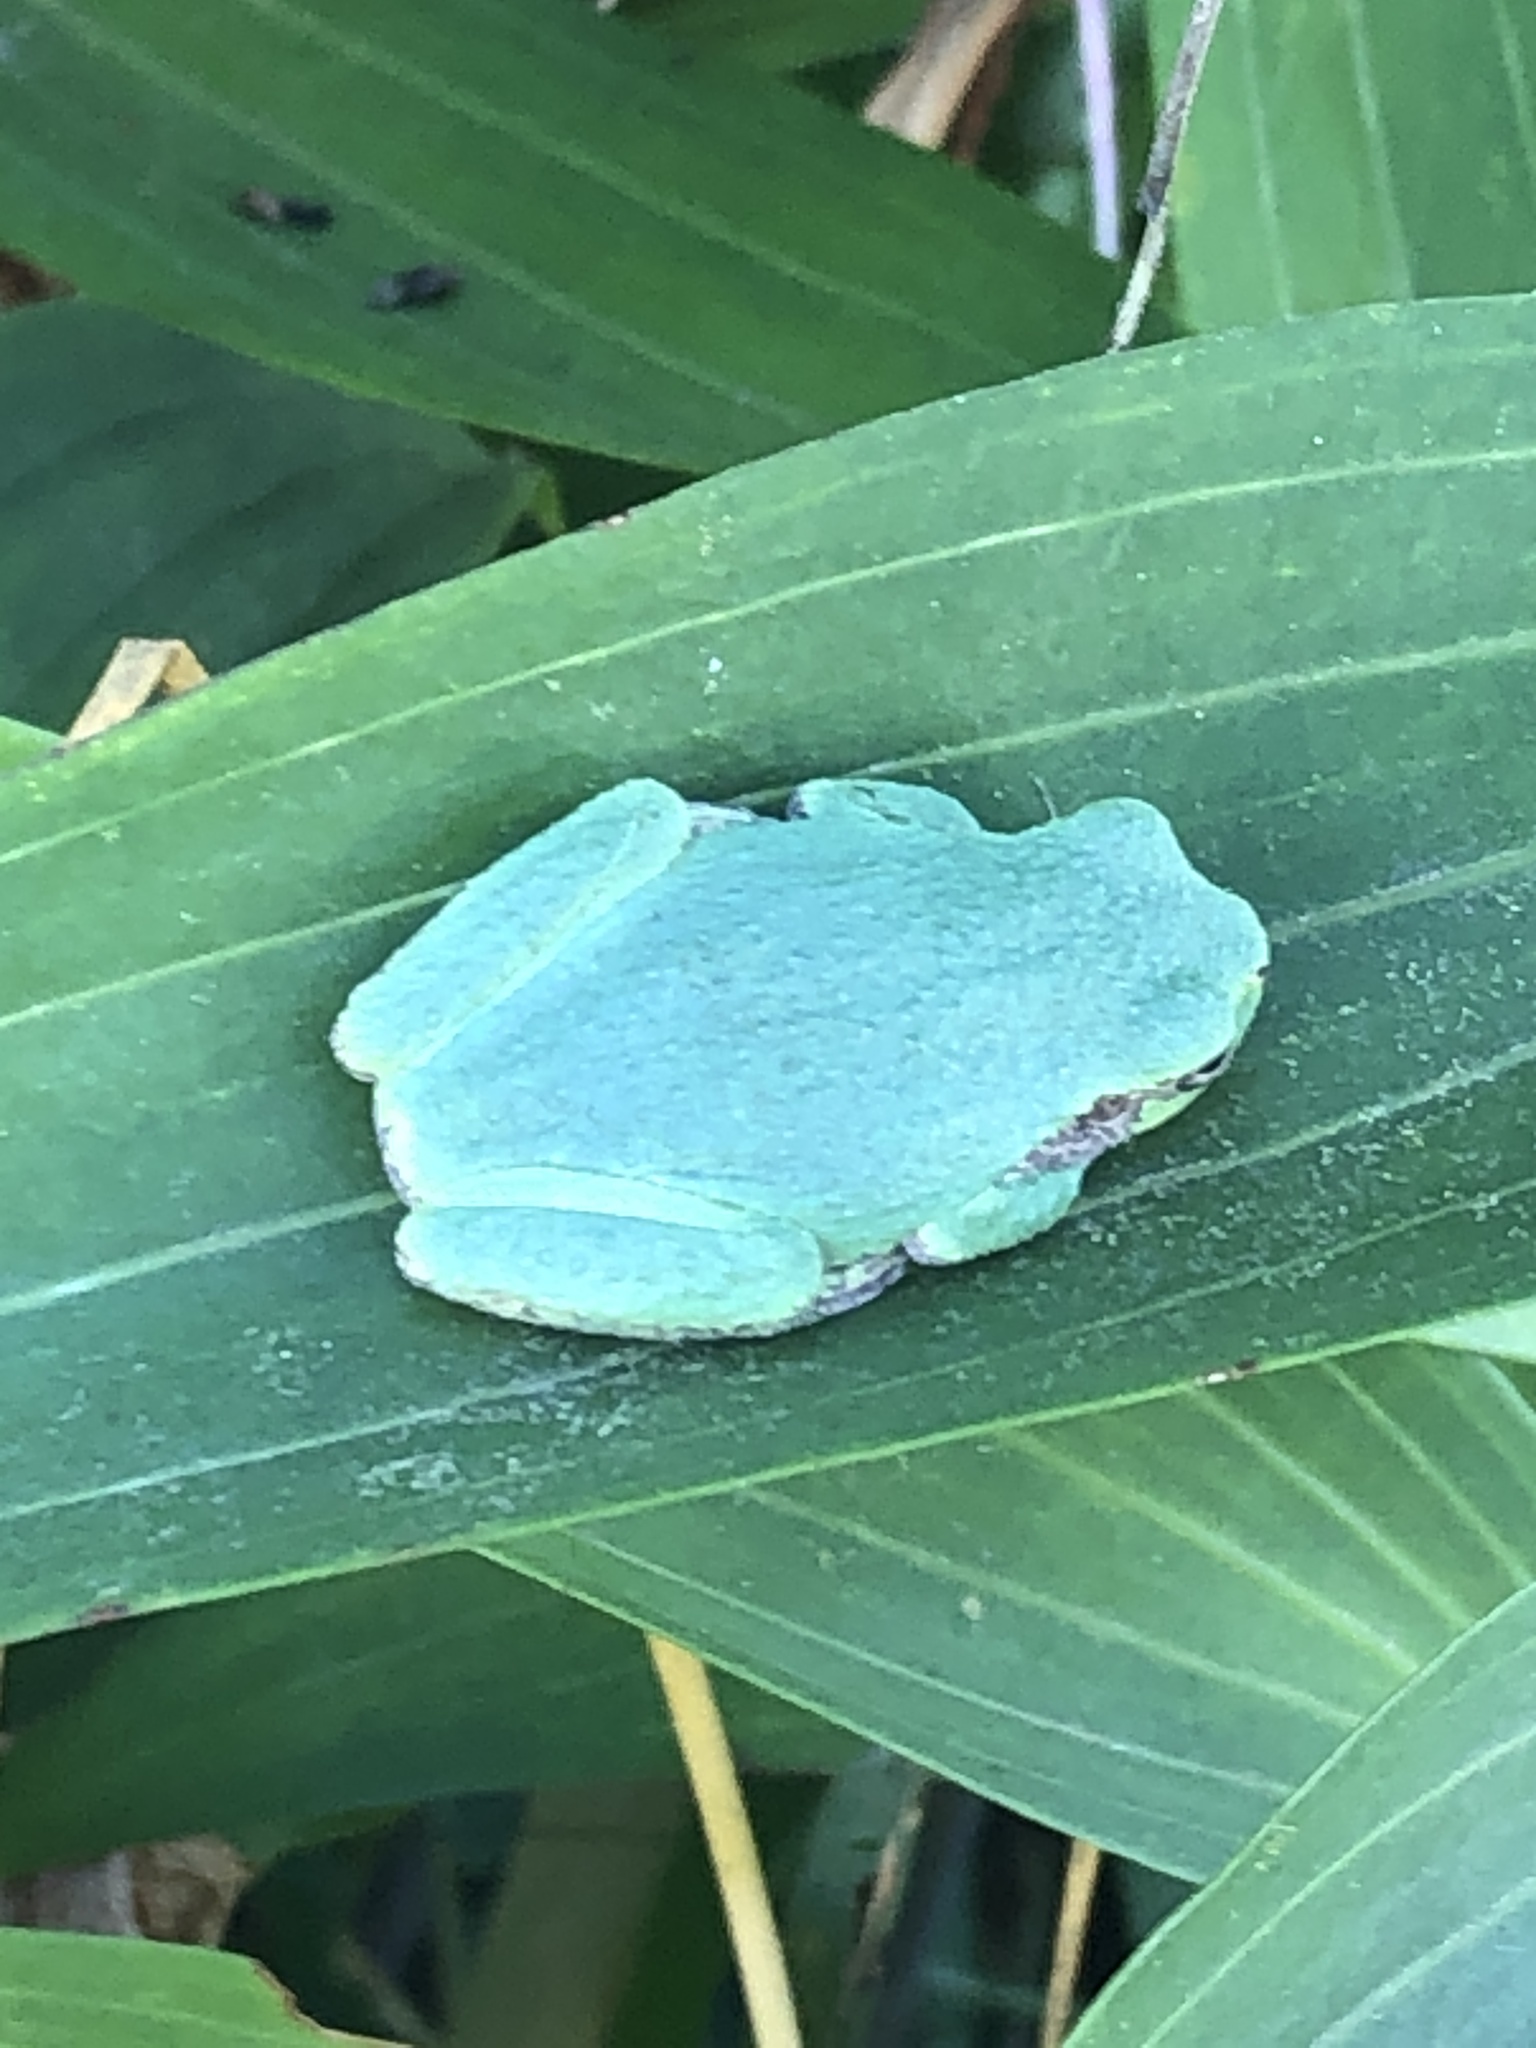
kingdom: Animalia
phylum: Chordata
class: Amphibia
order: Anura
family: Hylidae
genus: Hyla
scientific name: Hyla
